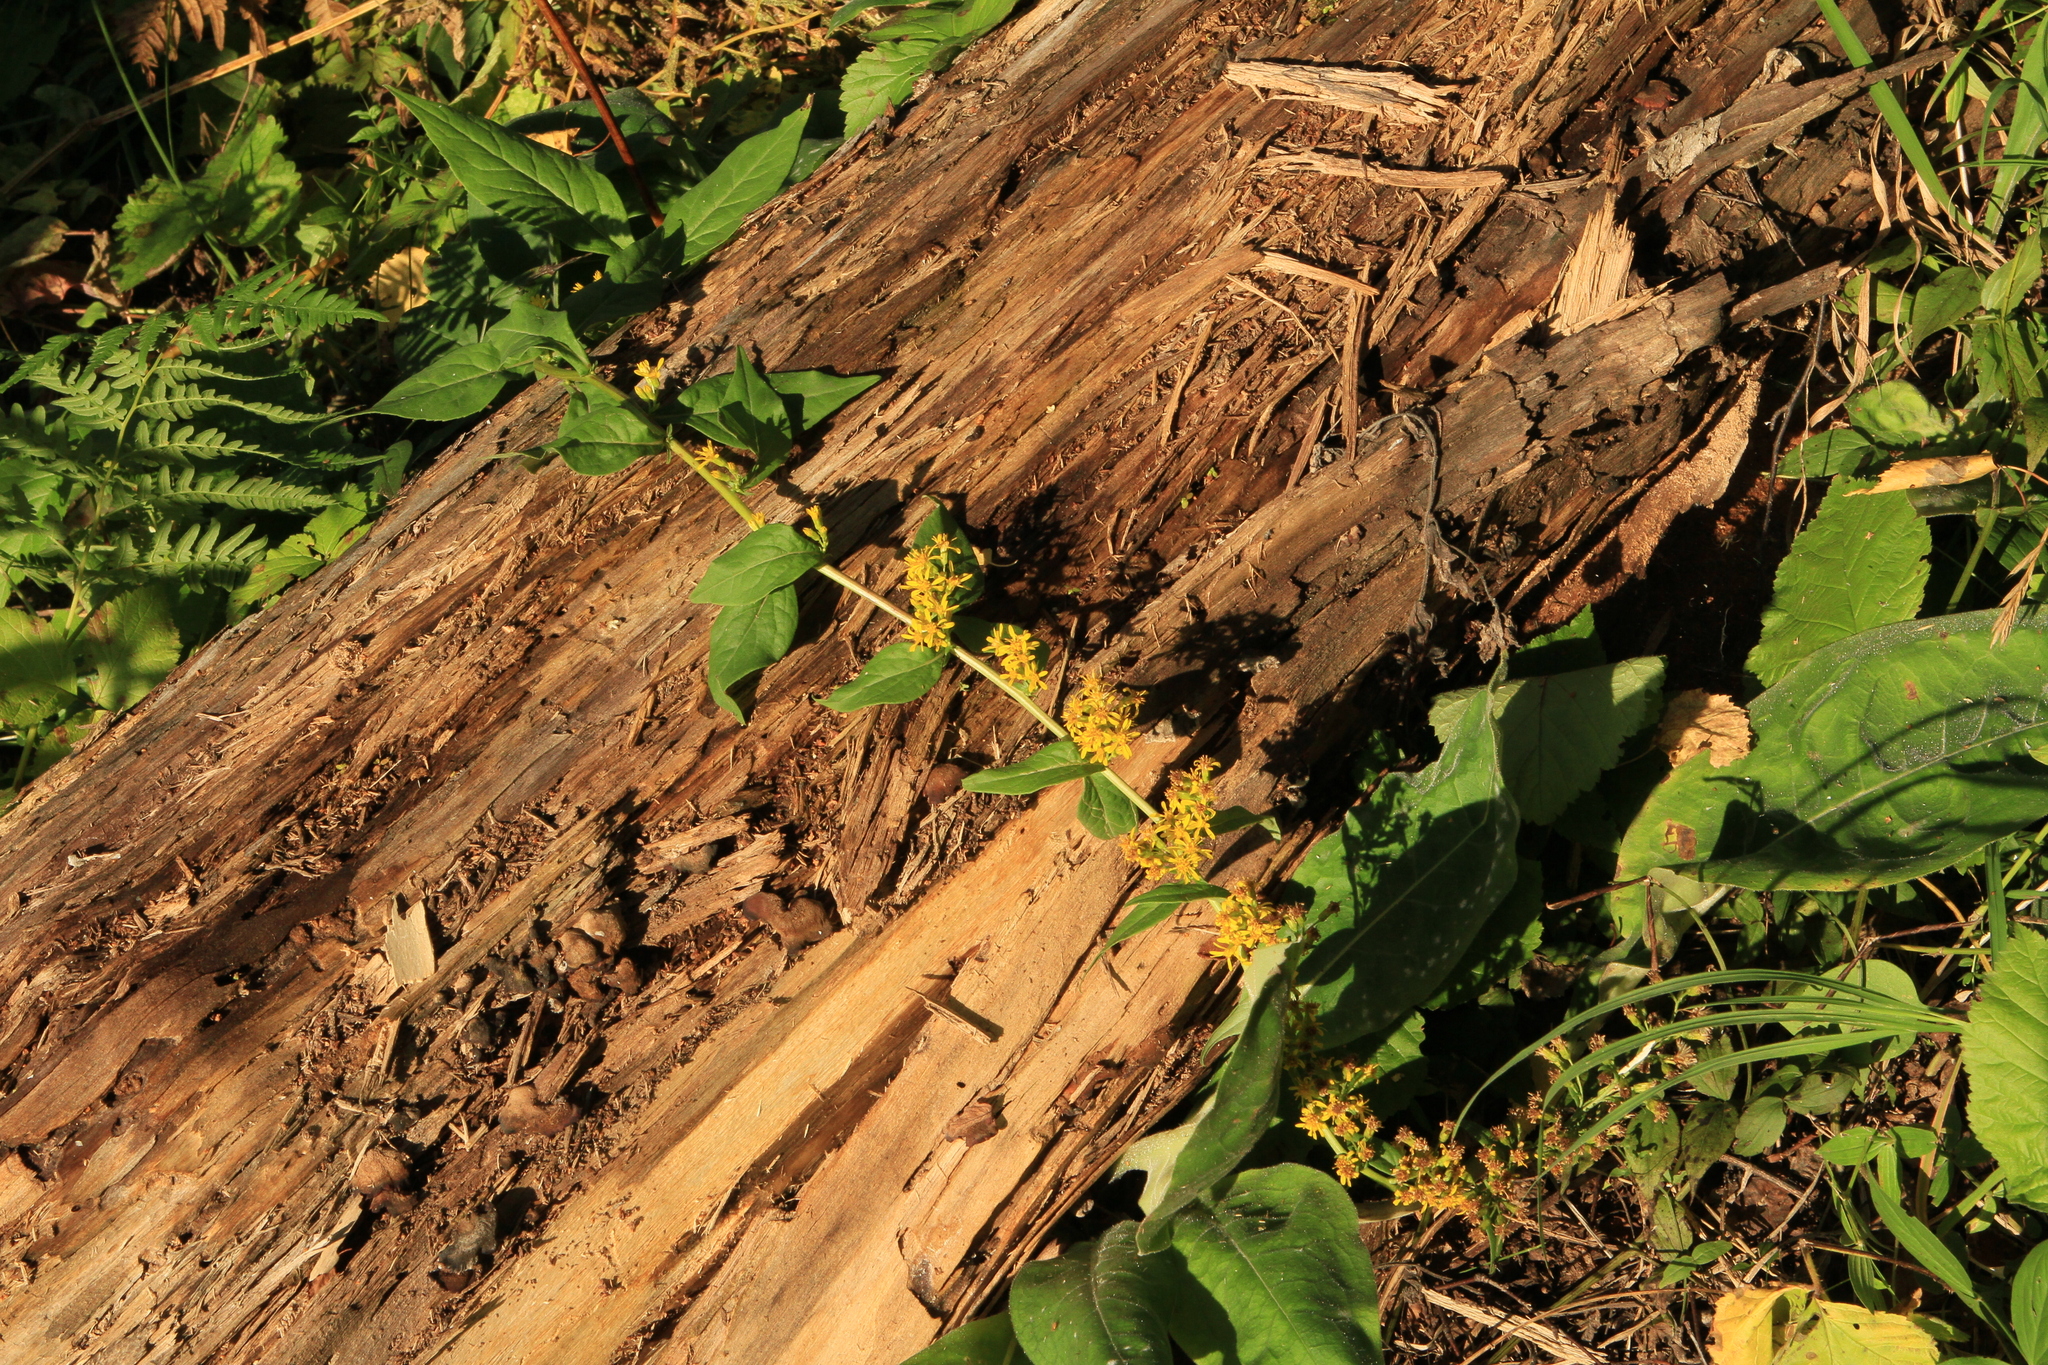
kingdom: Plantae
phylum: Tracheophyta
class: Magnoliopsida
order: Asterales
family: Asteraceae
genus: Solidago
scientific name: Solidago virgaurea
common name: Goldenrod
